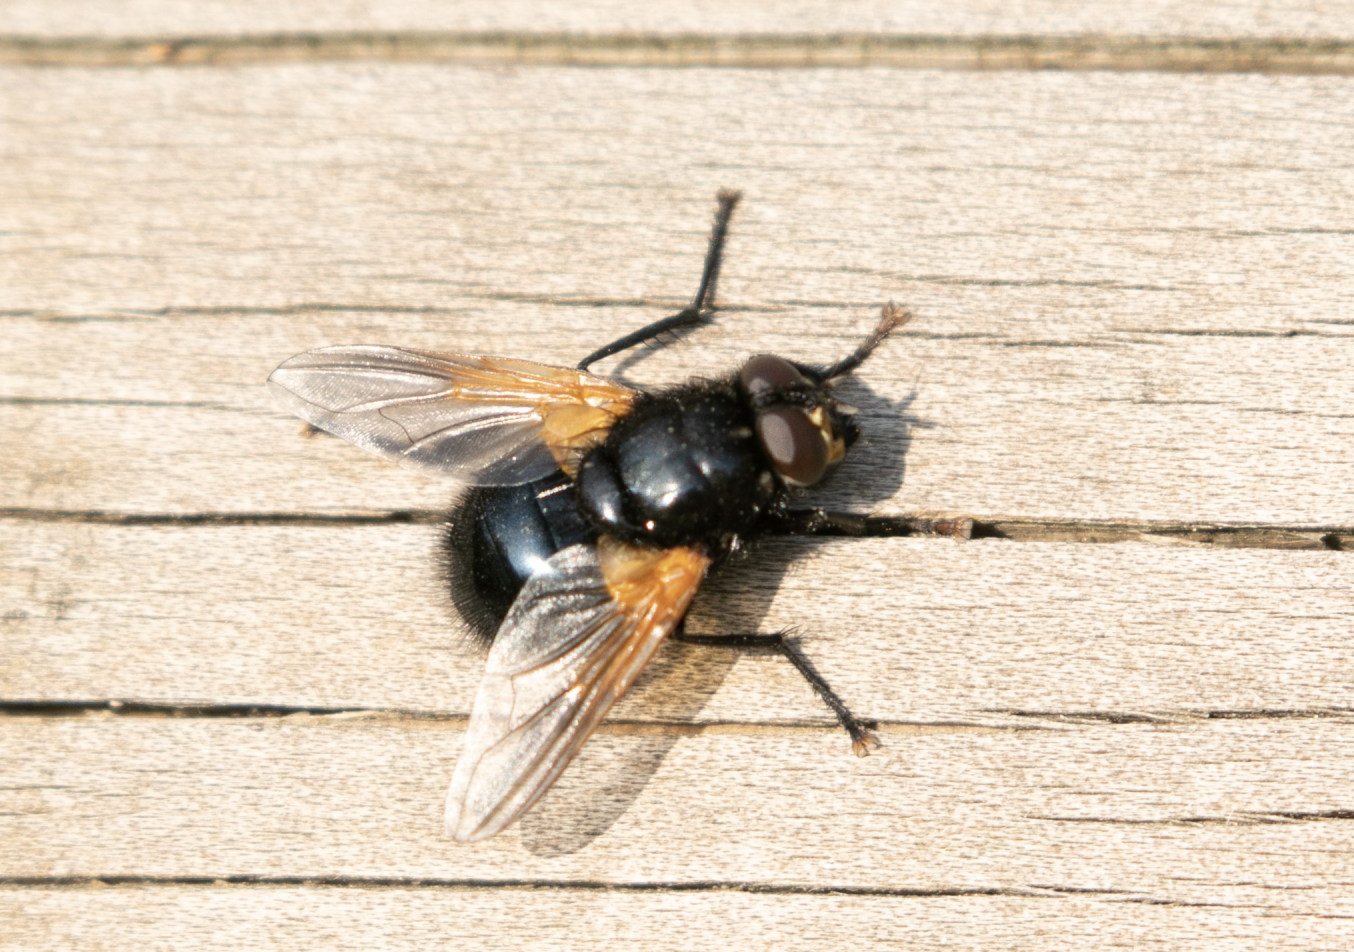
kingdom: Animalia
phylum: Arthropoda
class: Insecta
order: Diptera
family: Muscidae
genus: Mesembrina
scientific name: Mesembrina meridiana
